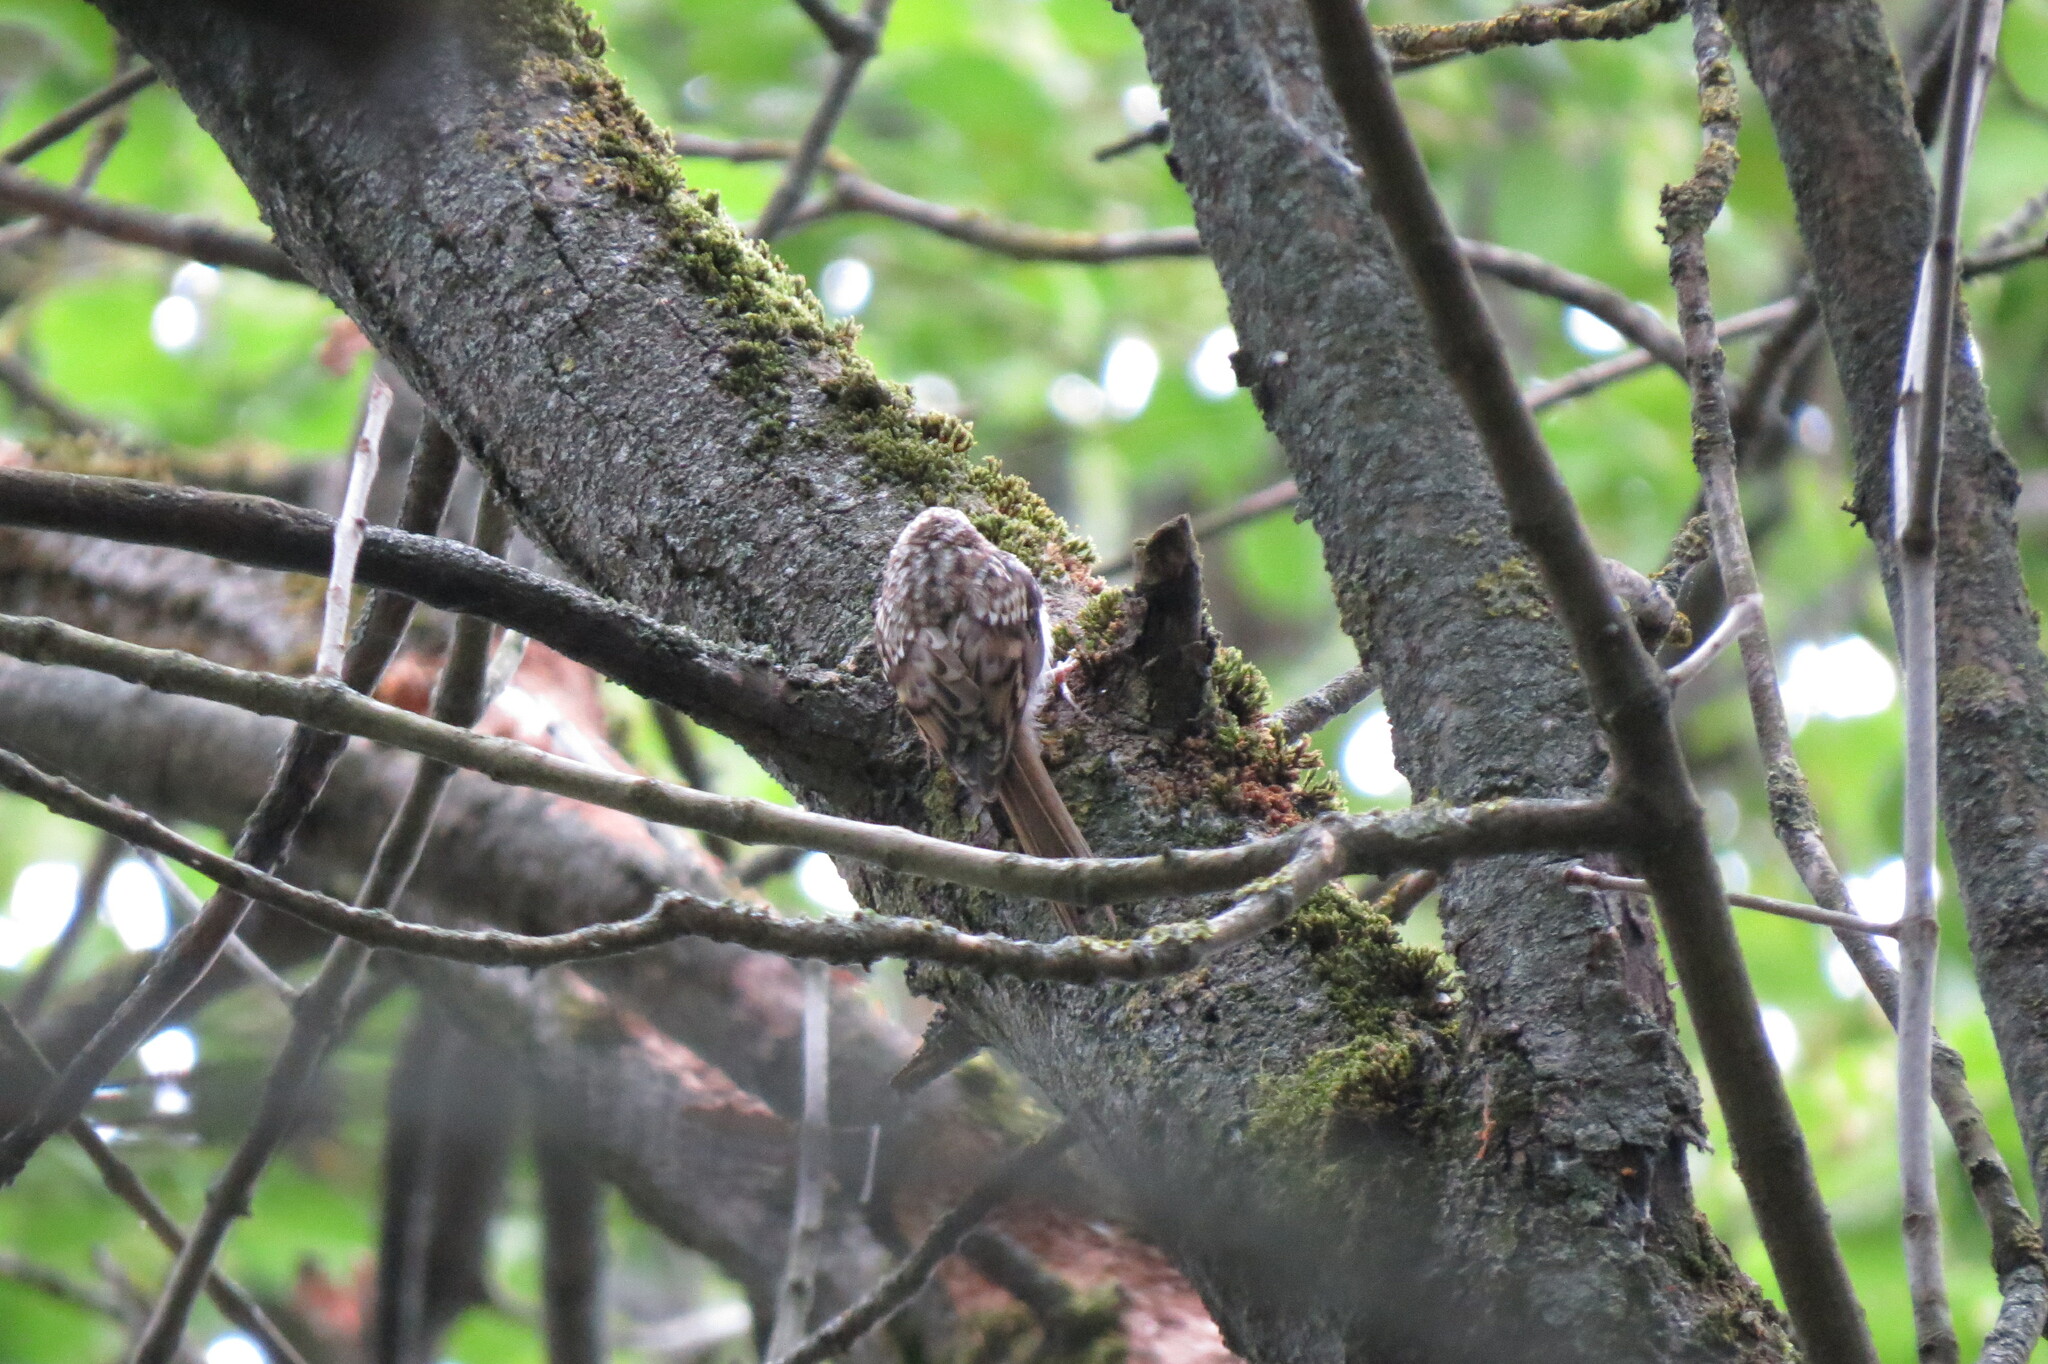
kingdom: Animalia
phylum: Chordata
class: Aves
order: Passeriformes
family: Certhiidae
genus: Certhia
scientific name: Certhia familiaris
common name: Eurasian treecreeper
